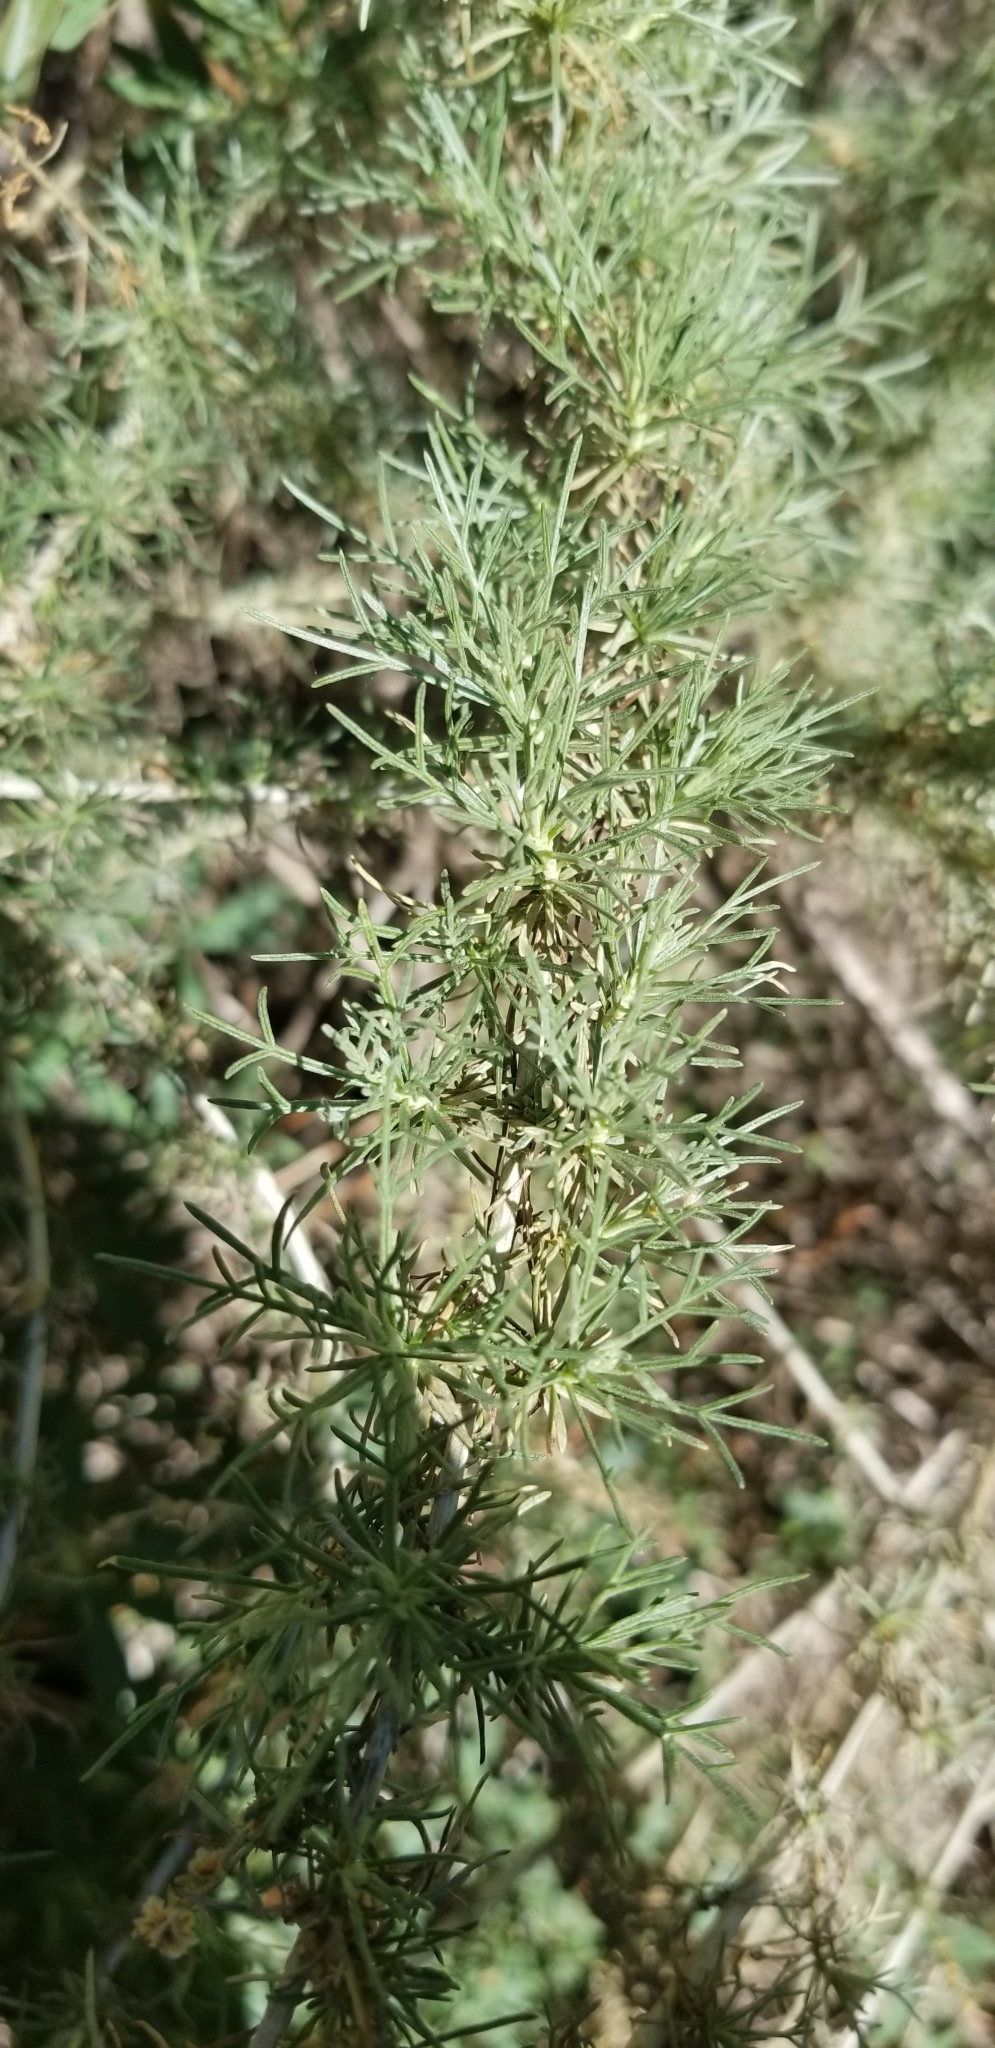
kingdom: Plantae
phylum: Tracheophyta
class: Magnoliopsida
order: Asterales
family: Asteraceae
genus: Artemisia
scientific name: Artemisia californica
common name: California sagebrush
